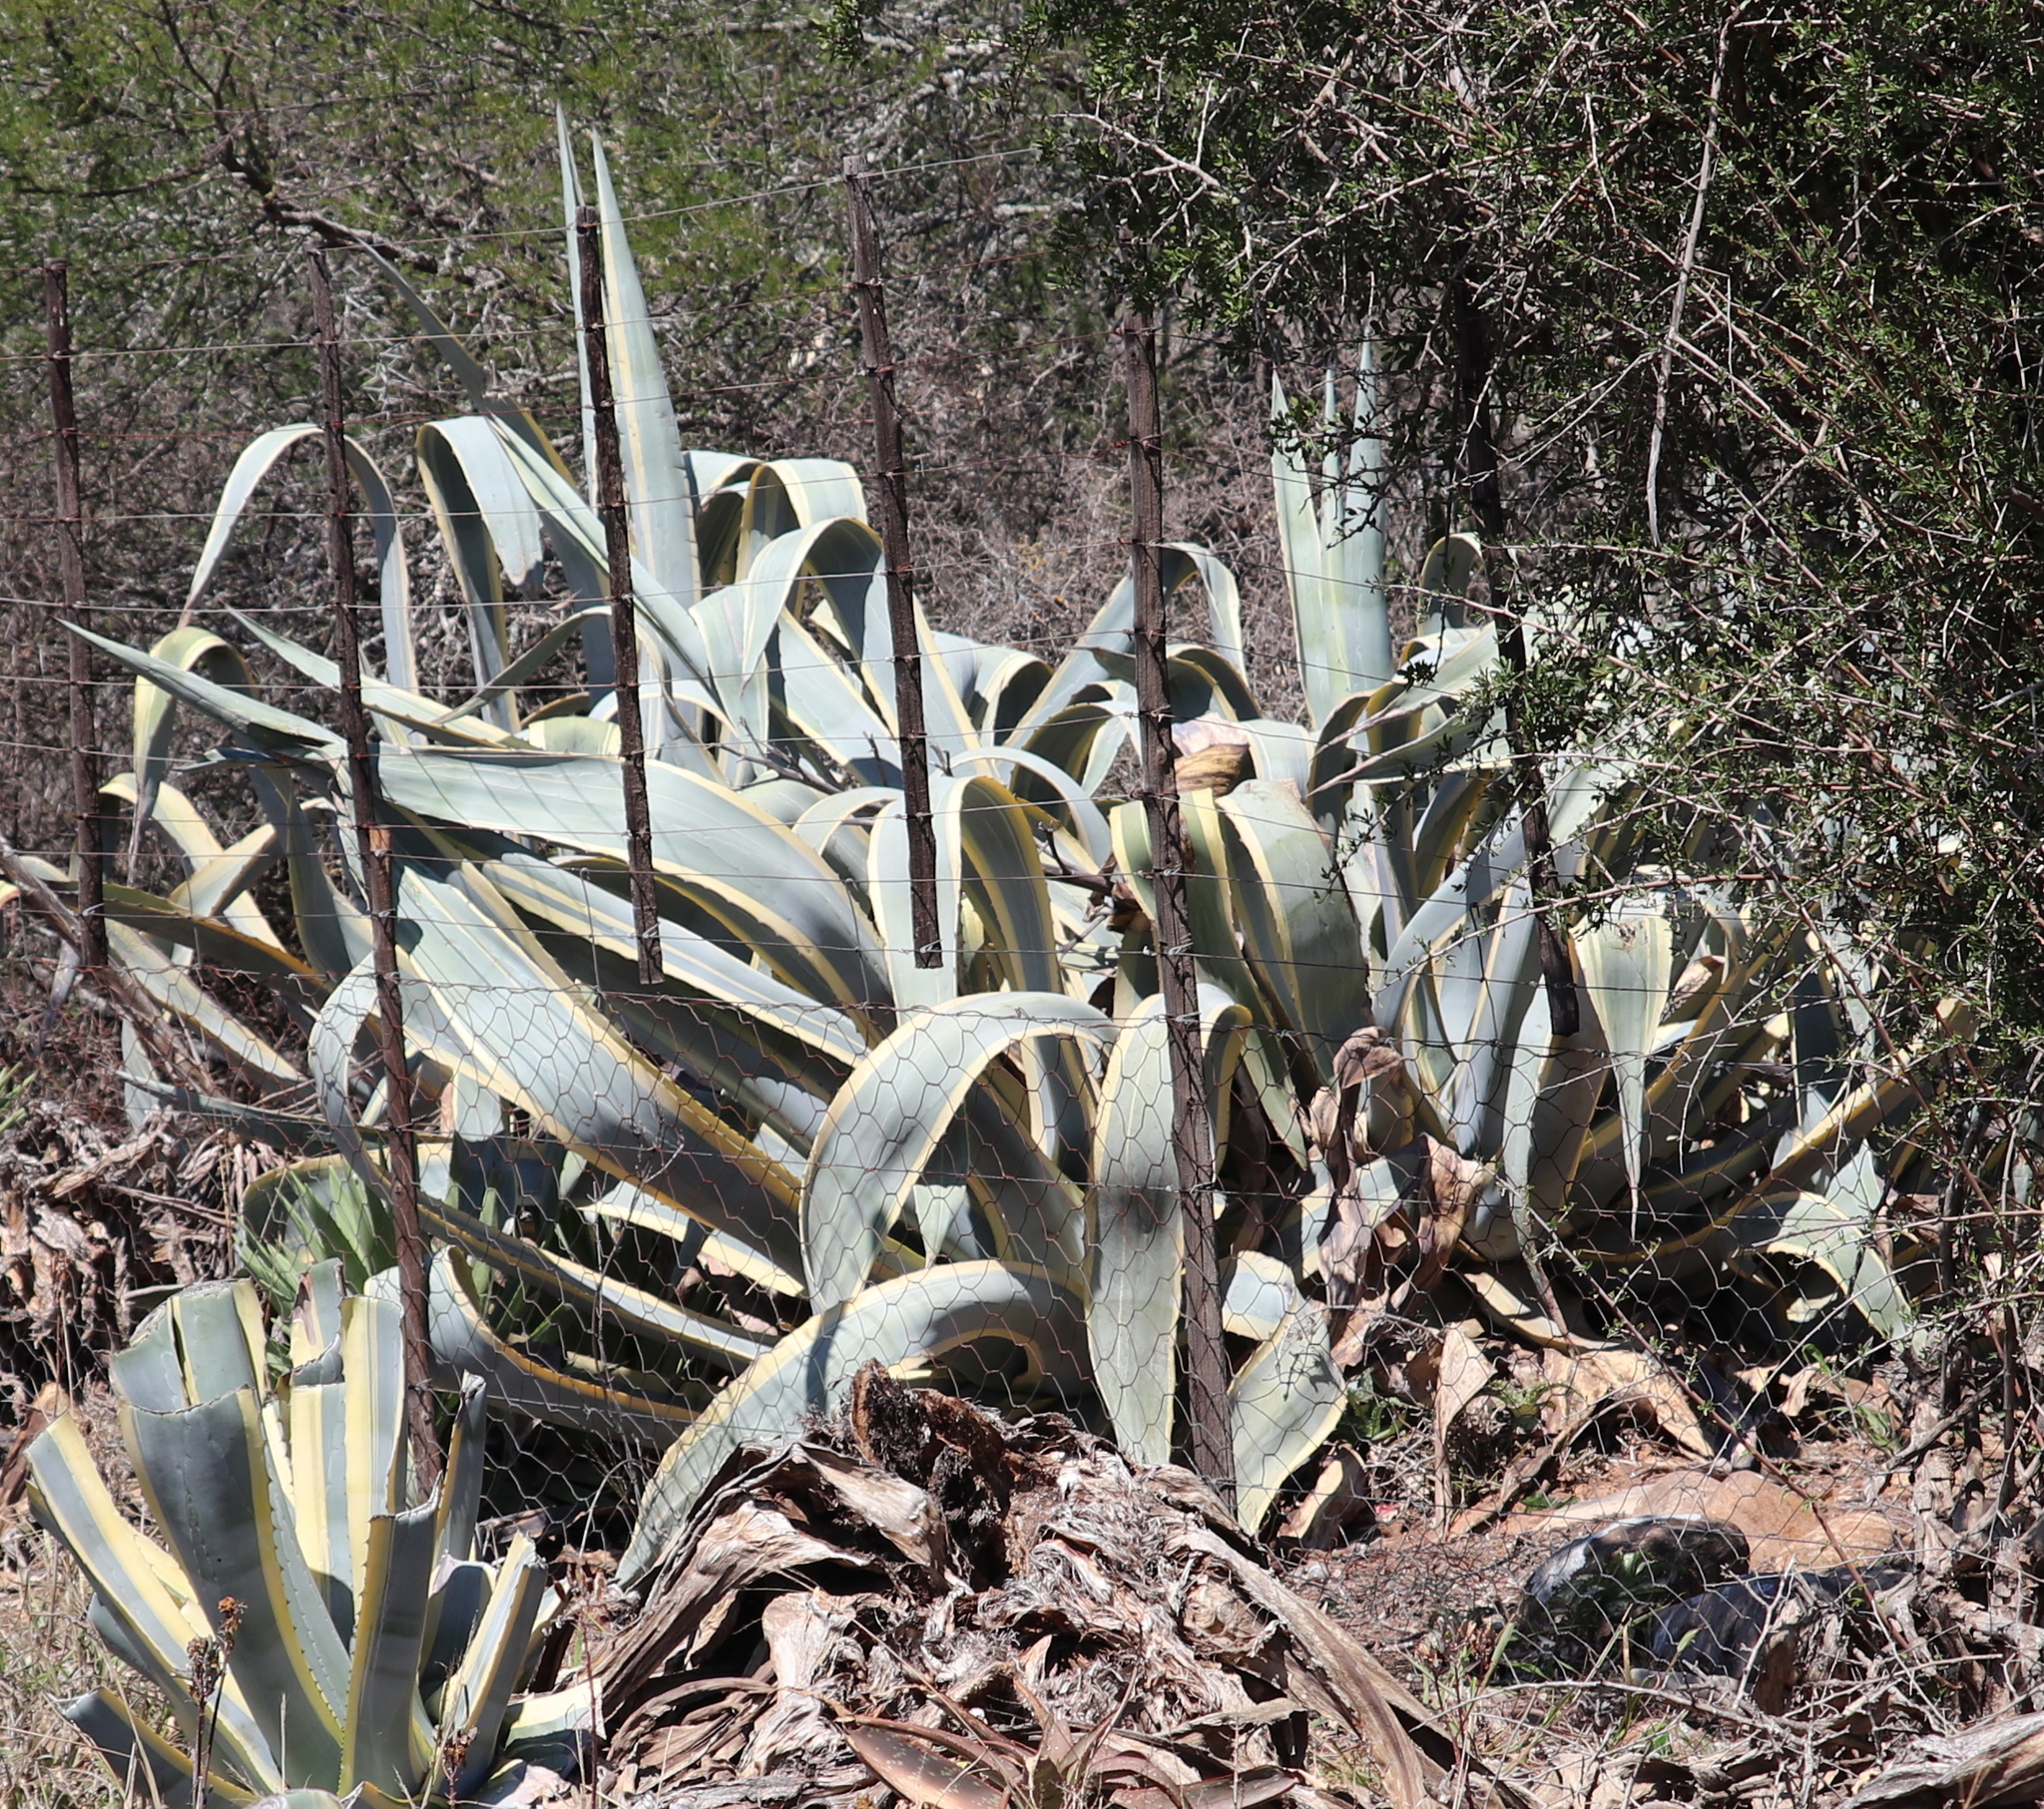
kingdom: Plantae
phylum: Tracheophyta
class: Liliopsida
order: Asparagales
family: Asparagaceae
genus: Agave
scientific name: Agave americana
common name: Centuryplant
